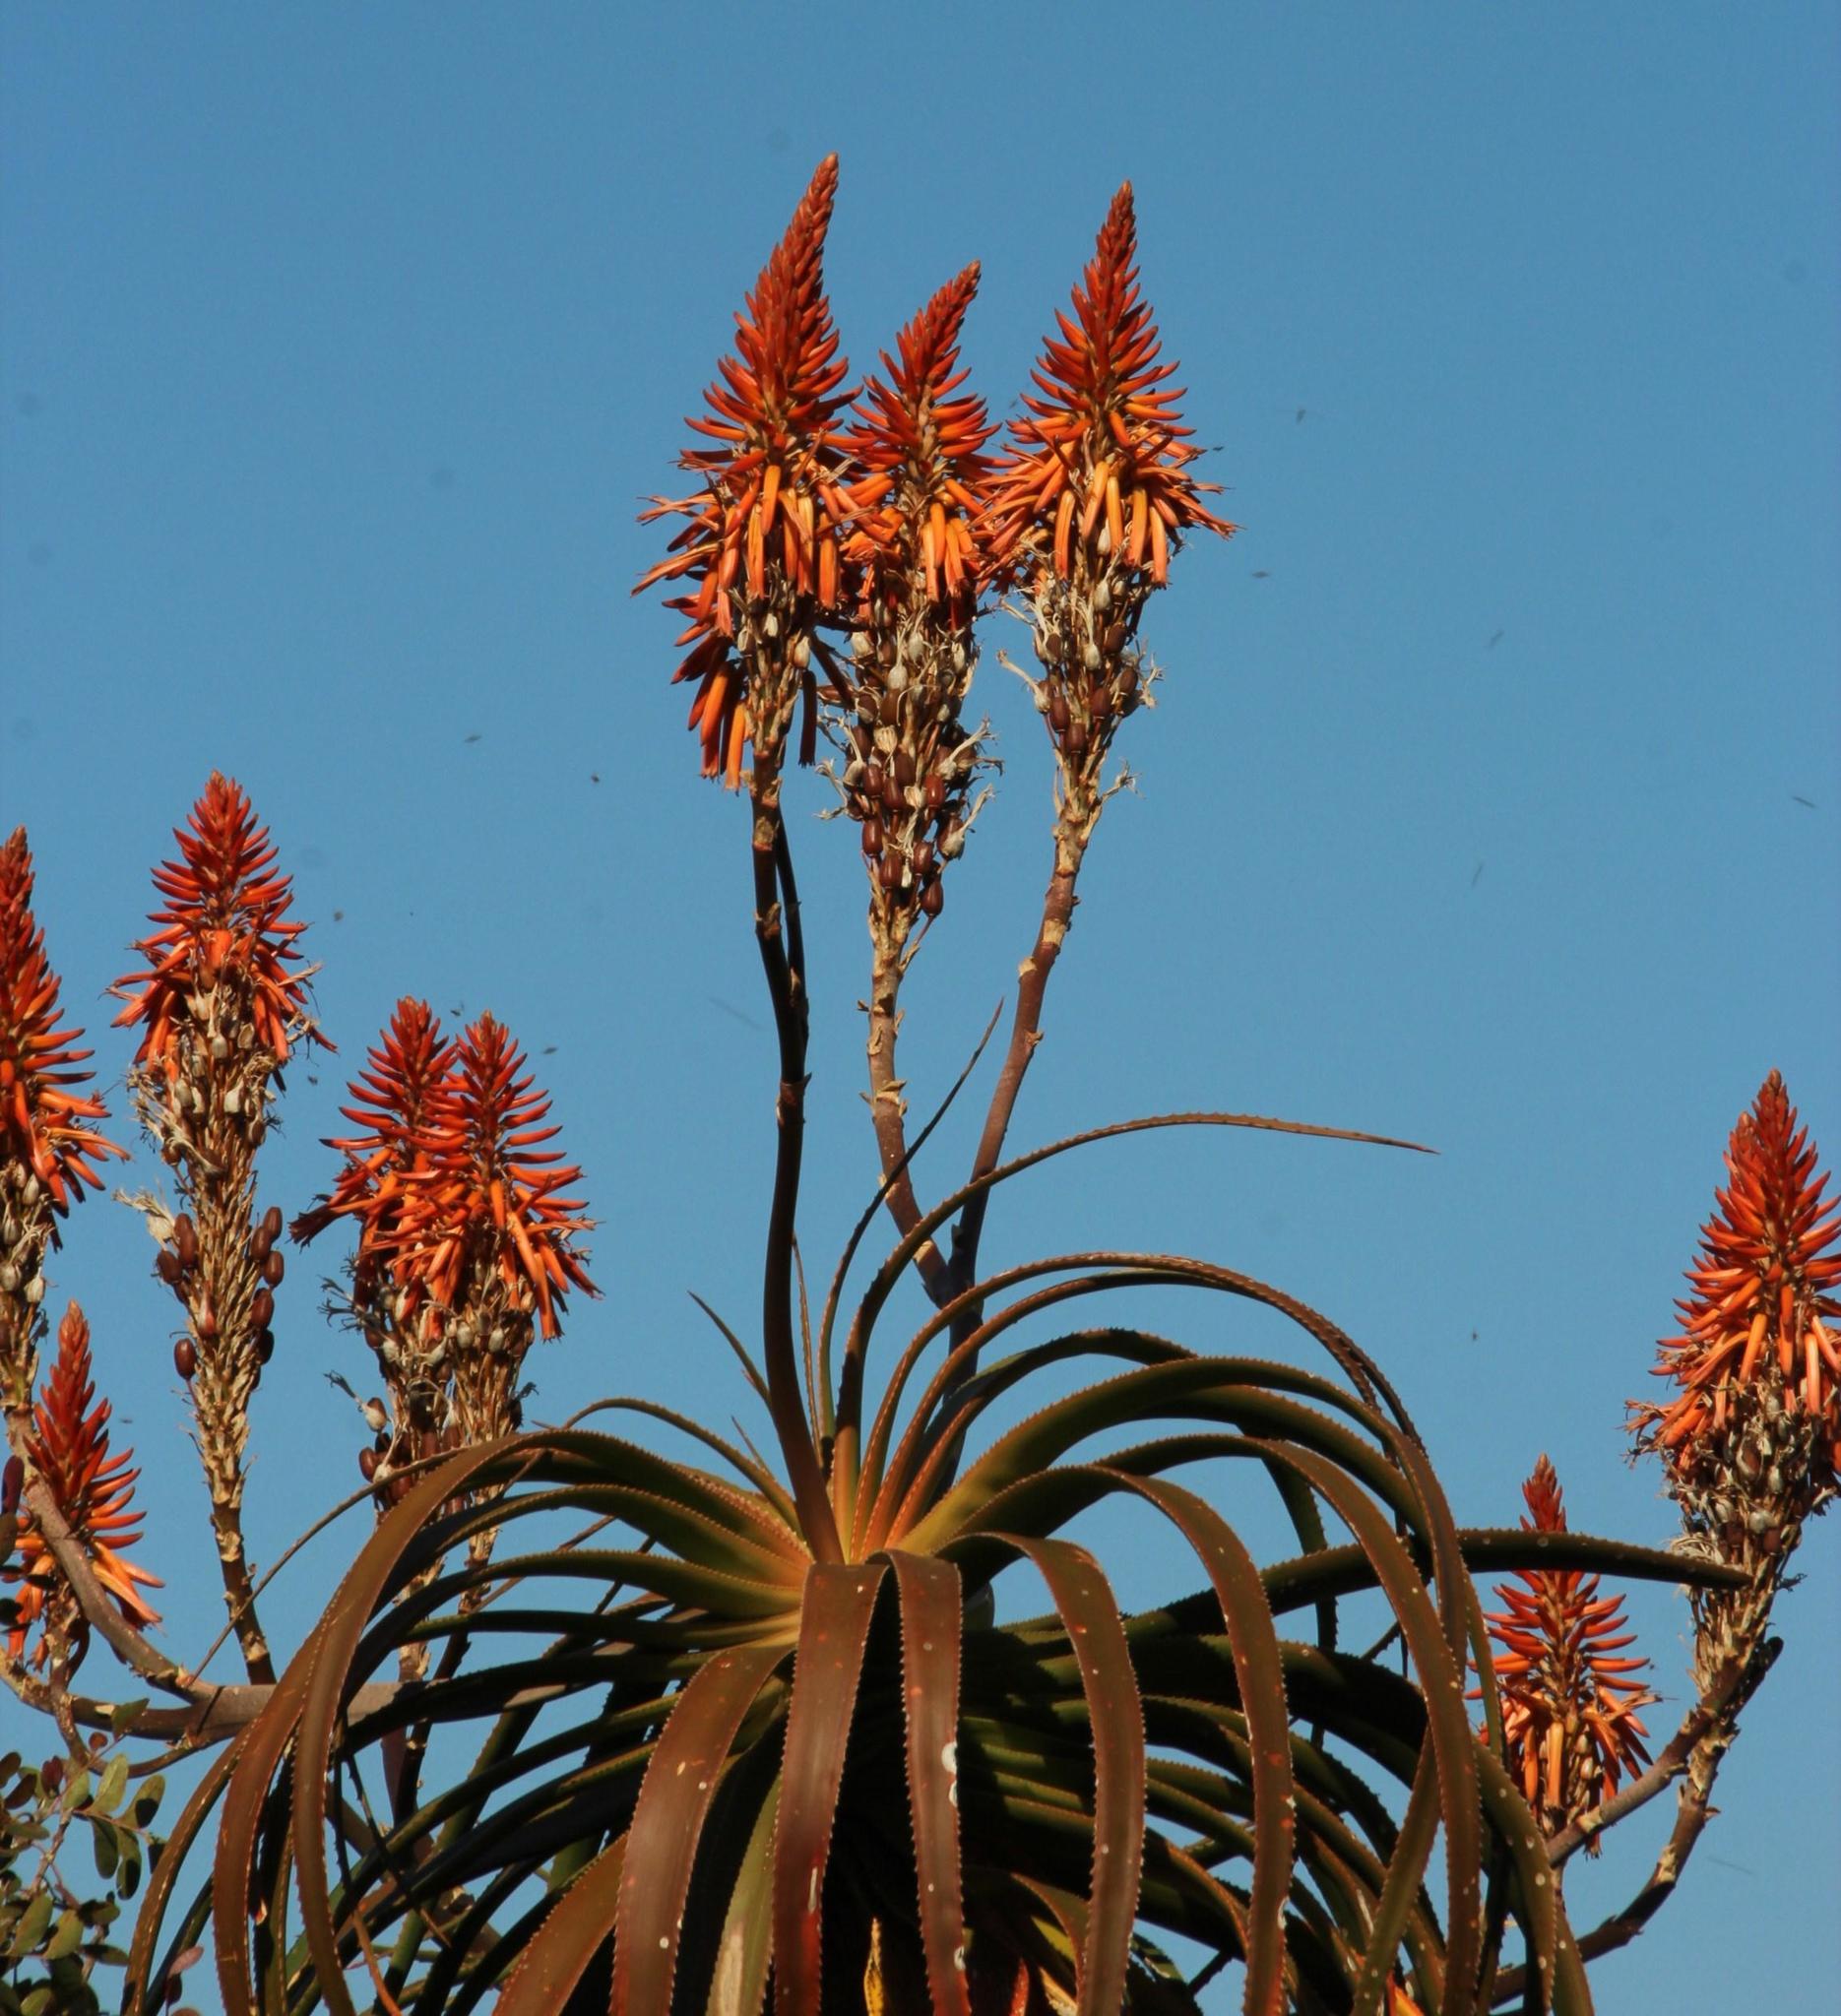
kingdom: Plantae
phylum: Tracheophyta
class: Liliopsida
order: Asparagales
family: Asphodelaceae
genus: Aloe
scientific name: Aloe pluridens
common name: French aloe
